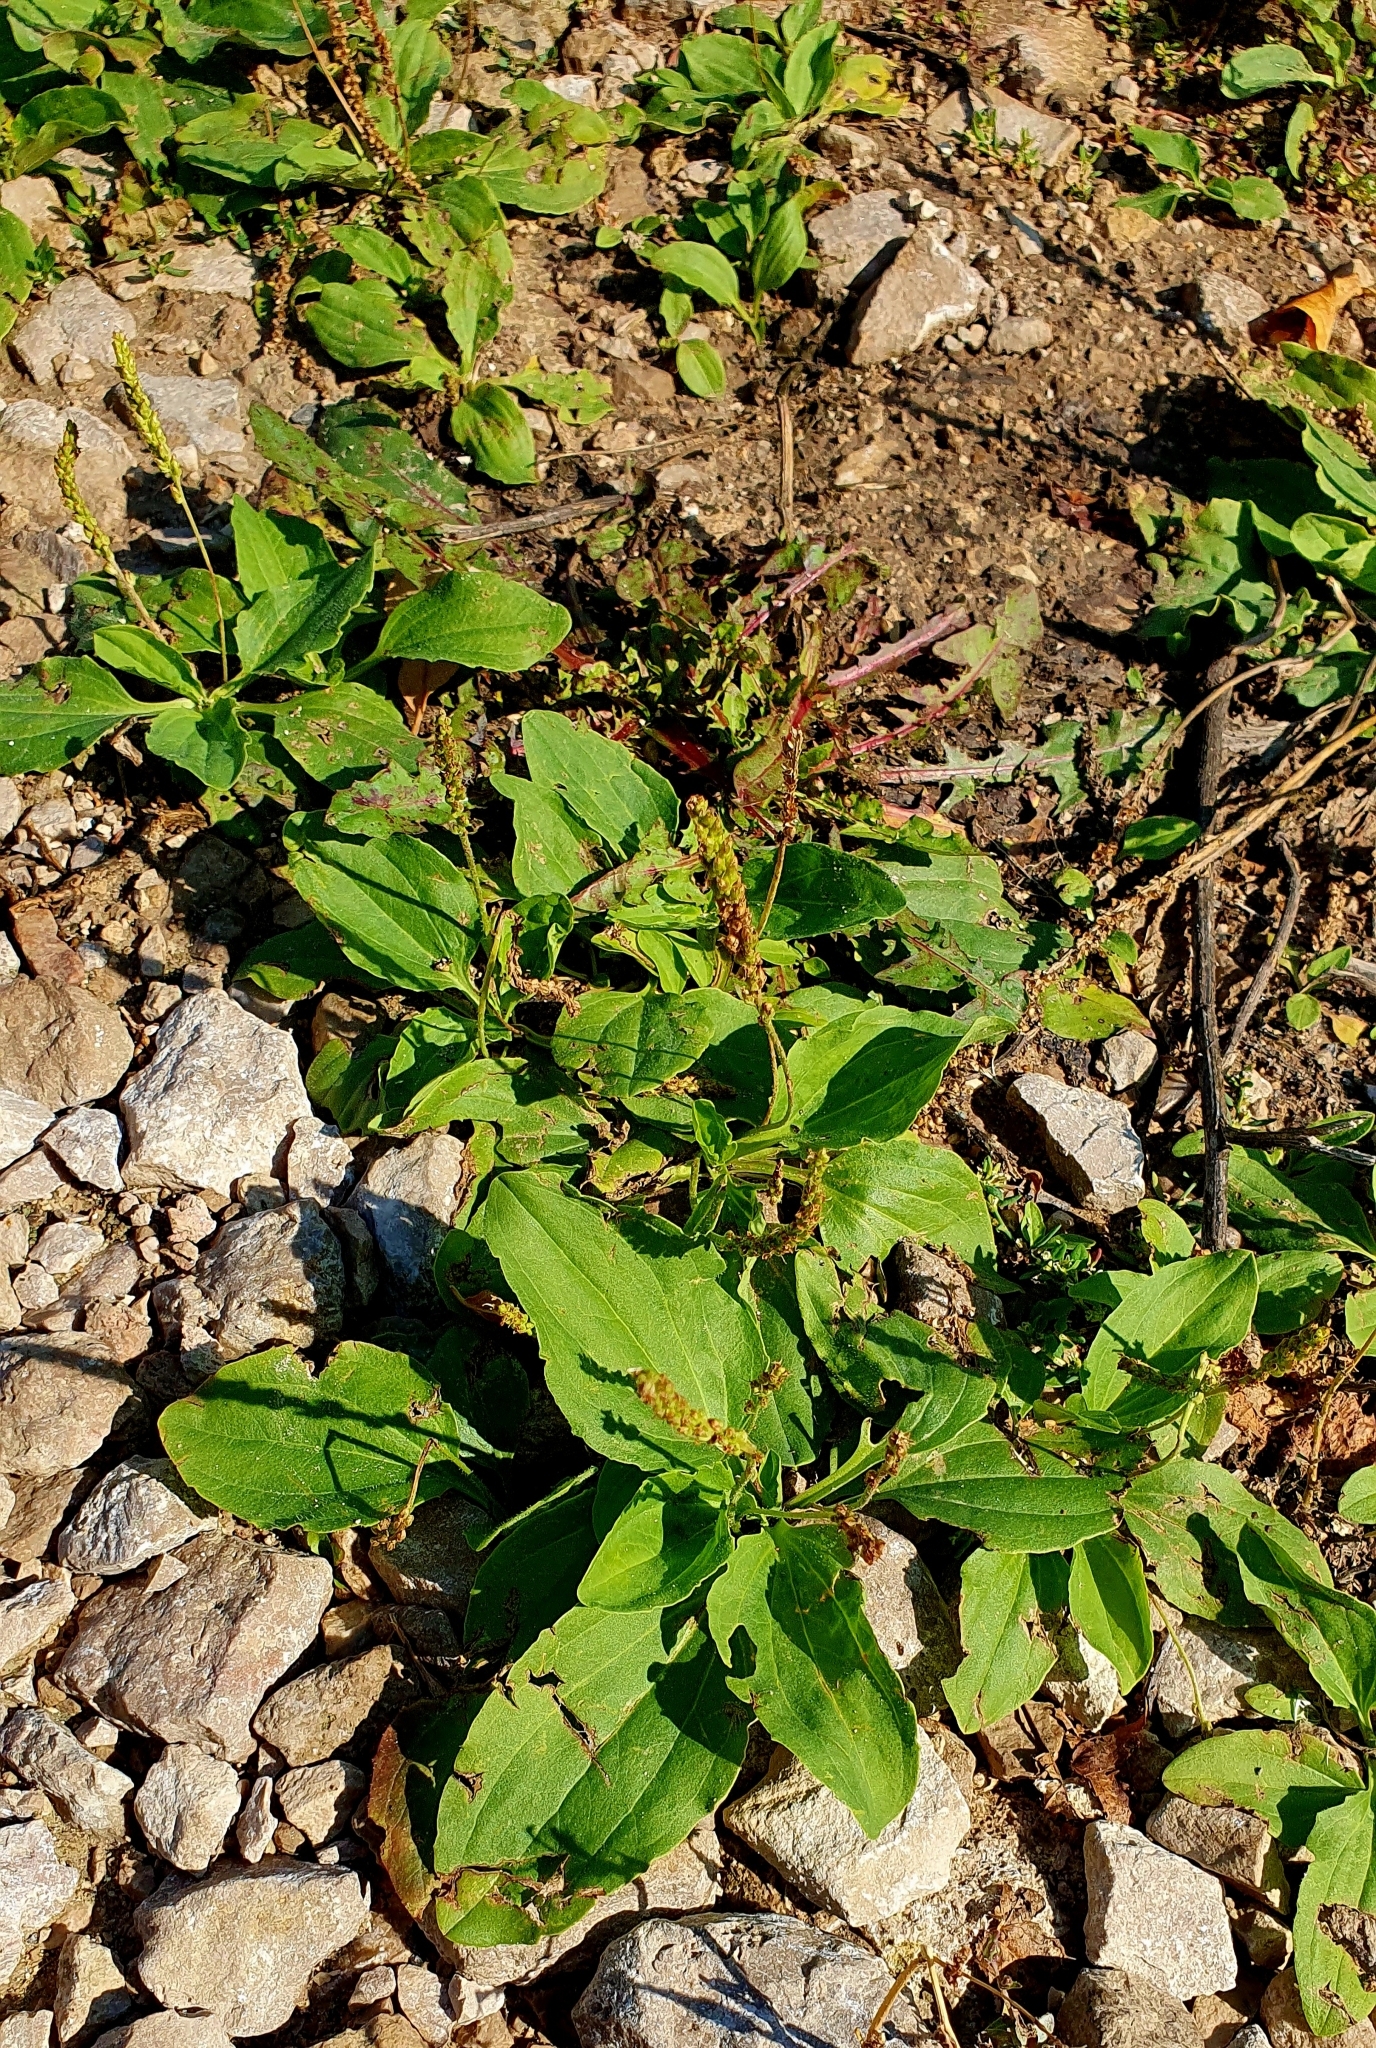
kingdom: Plantae
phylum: Tracheophyta
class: Magnoliopsida
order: Lamiales
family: Plantaginaceae
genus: Plantago
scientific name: Plantago major
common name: Common plantain
